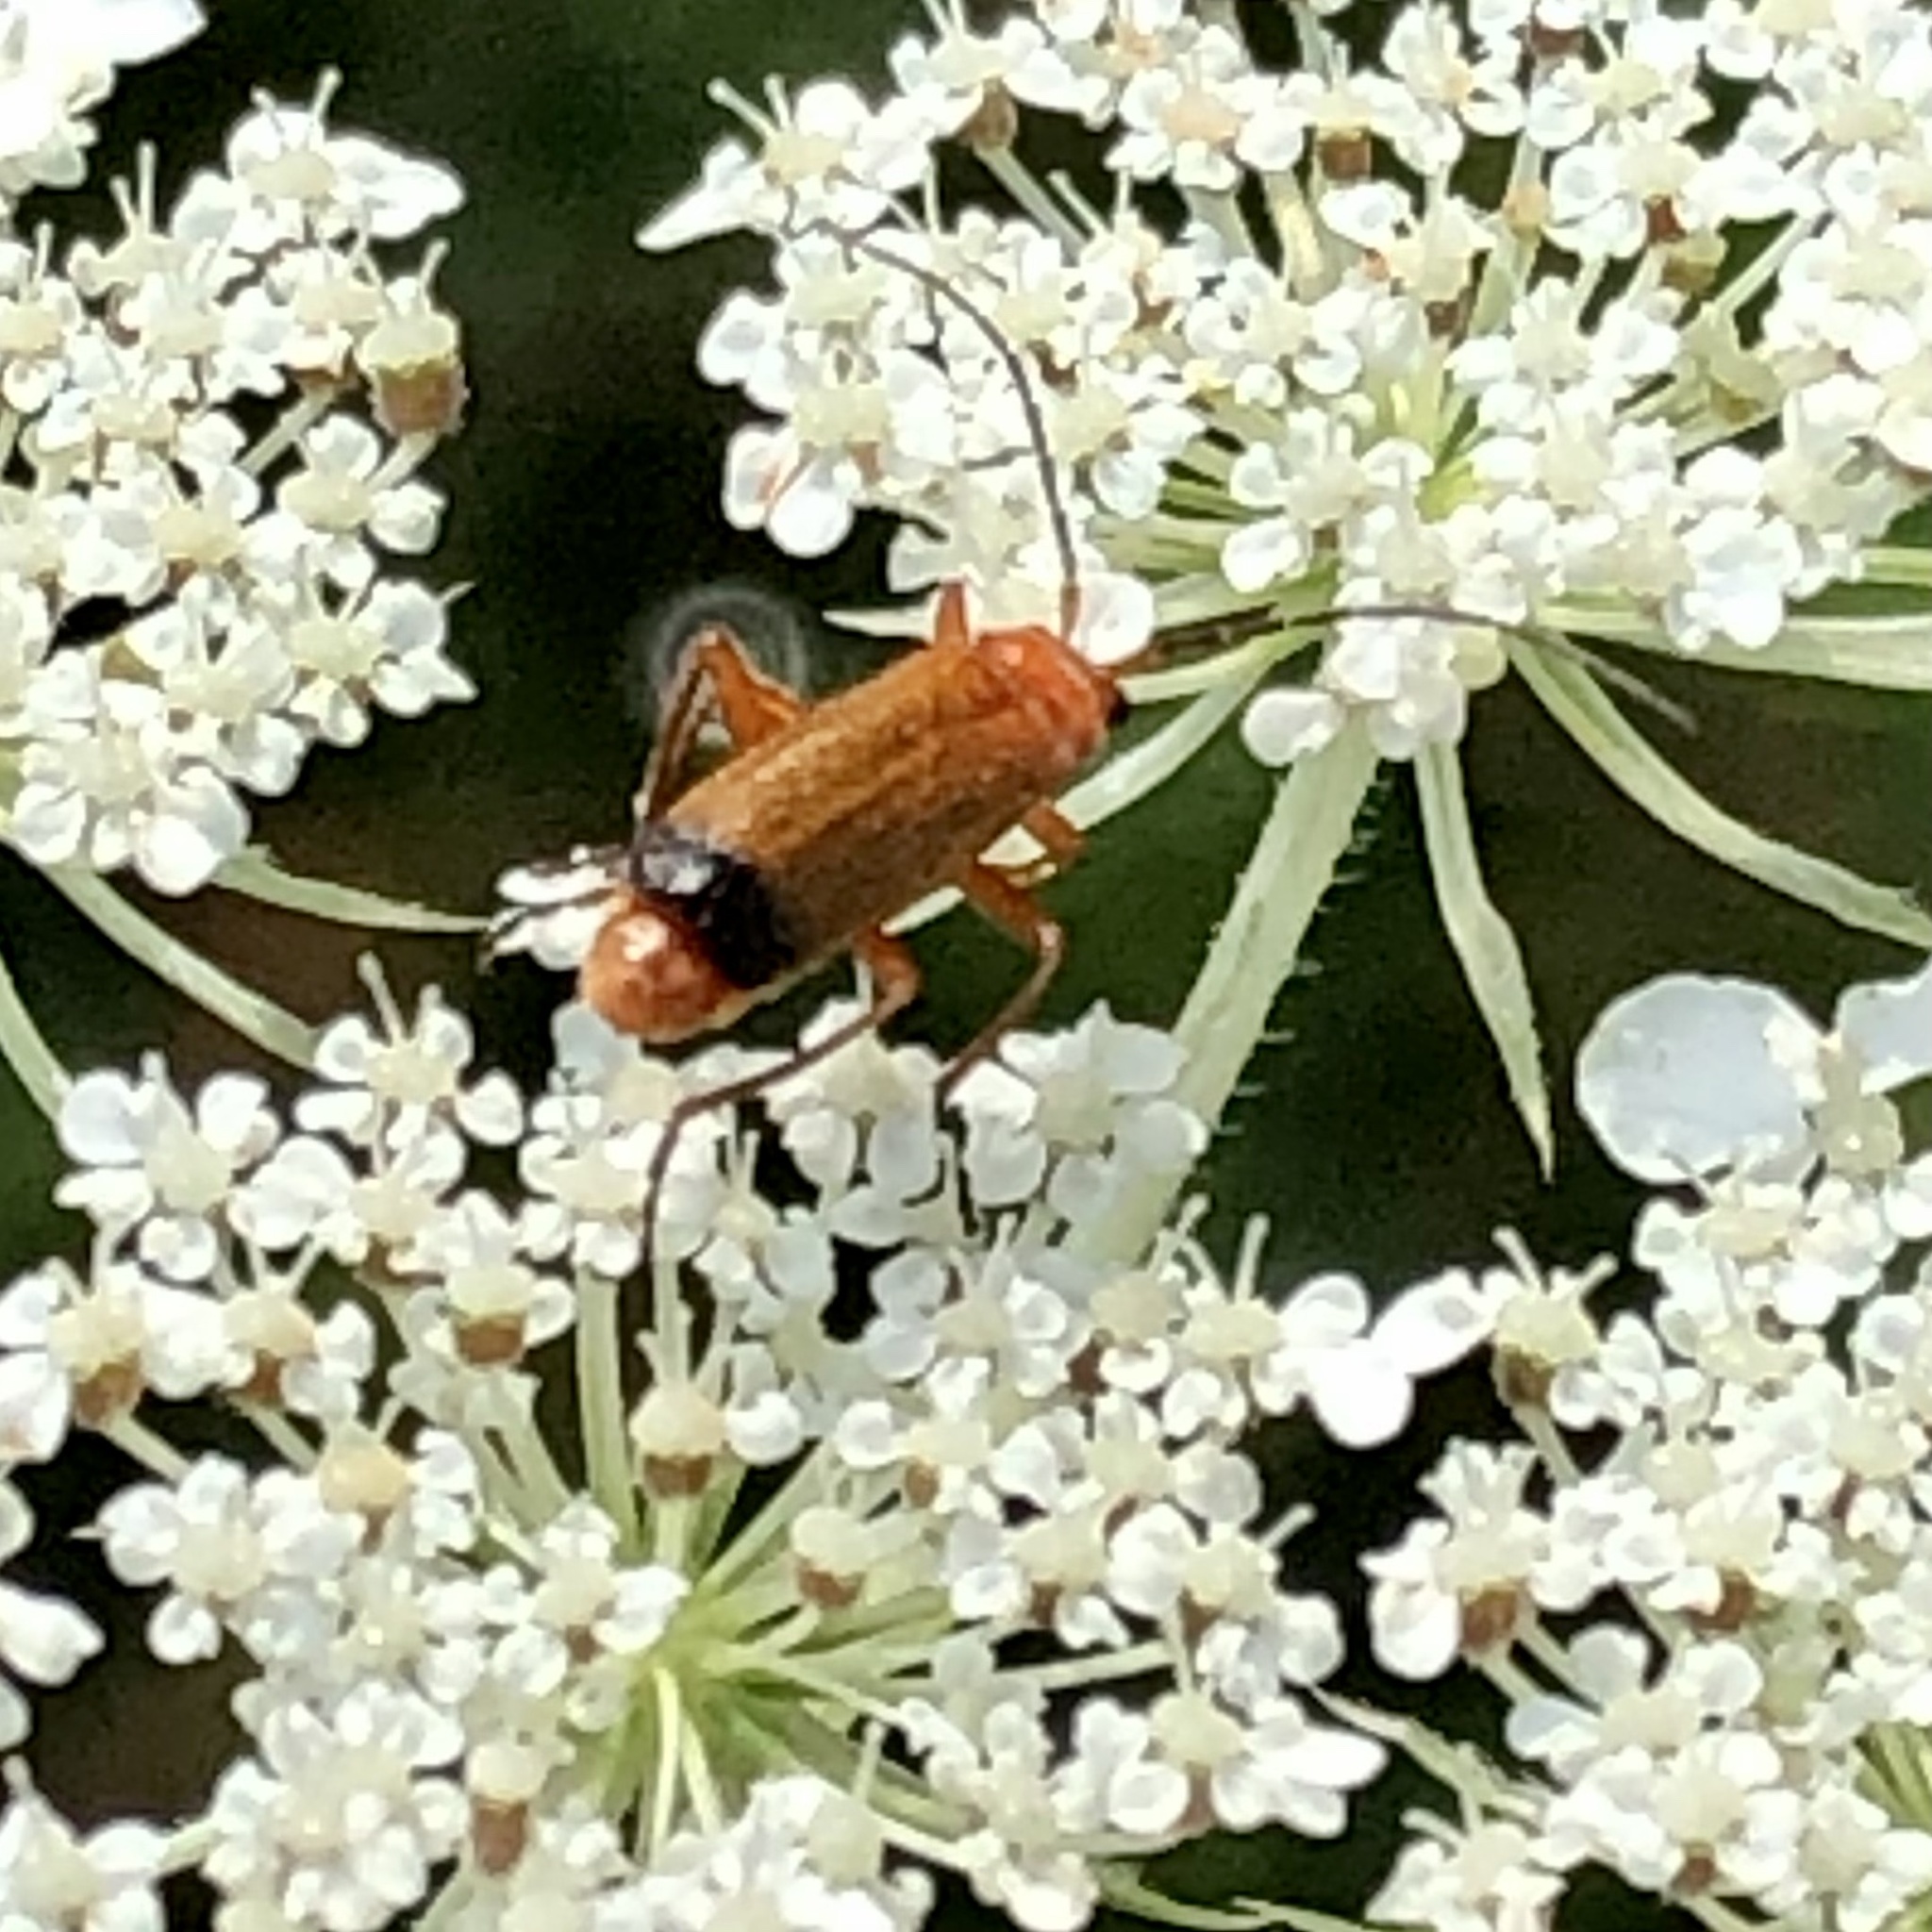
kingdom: Animalia
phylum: Arthropoda
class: Insecta
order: Coleoptera
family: Cantharidae
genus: Rhagonycha
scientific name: Rhagonycha fulva
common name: Common red soldier beetle
